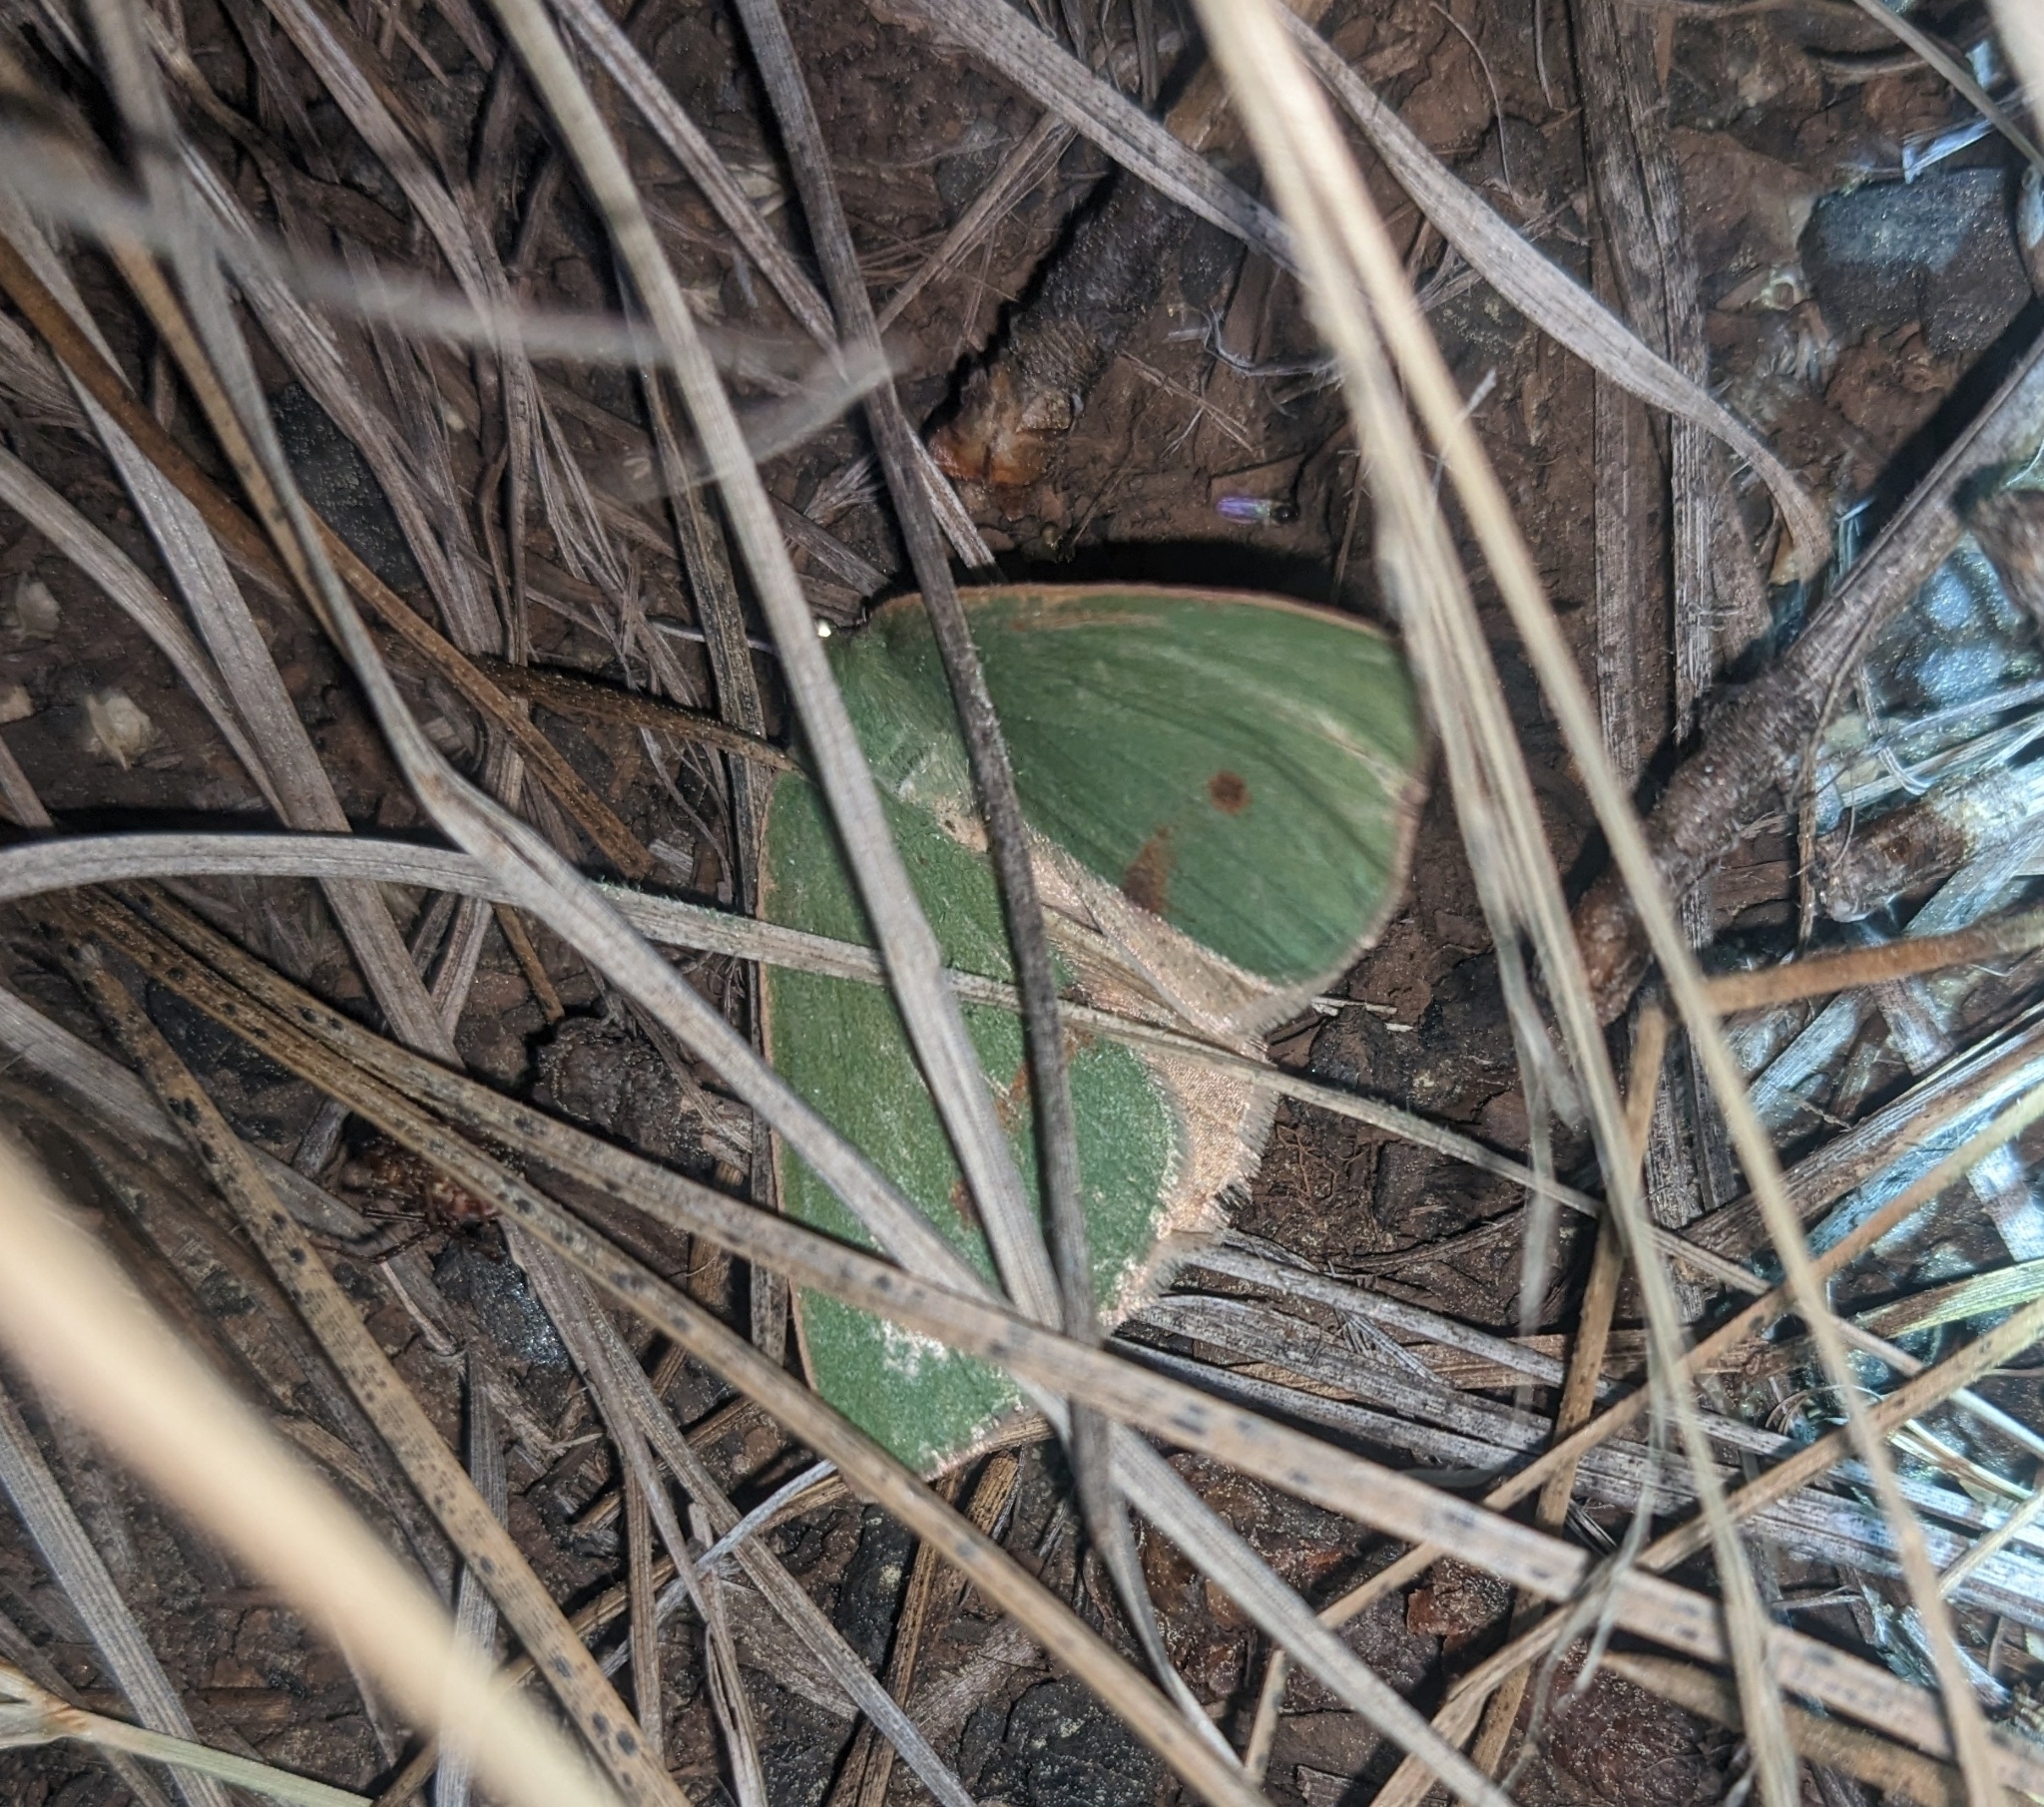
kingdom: Animalia
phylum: Arthropoda
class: Insecta
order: Lepidoptera
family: Geometridae
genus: Erastria
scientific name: Erastria viridirufaria
